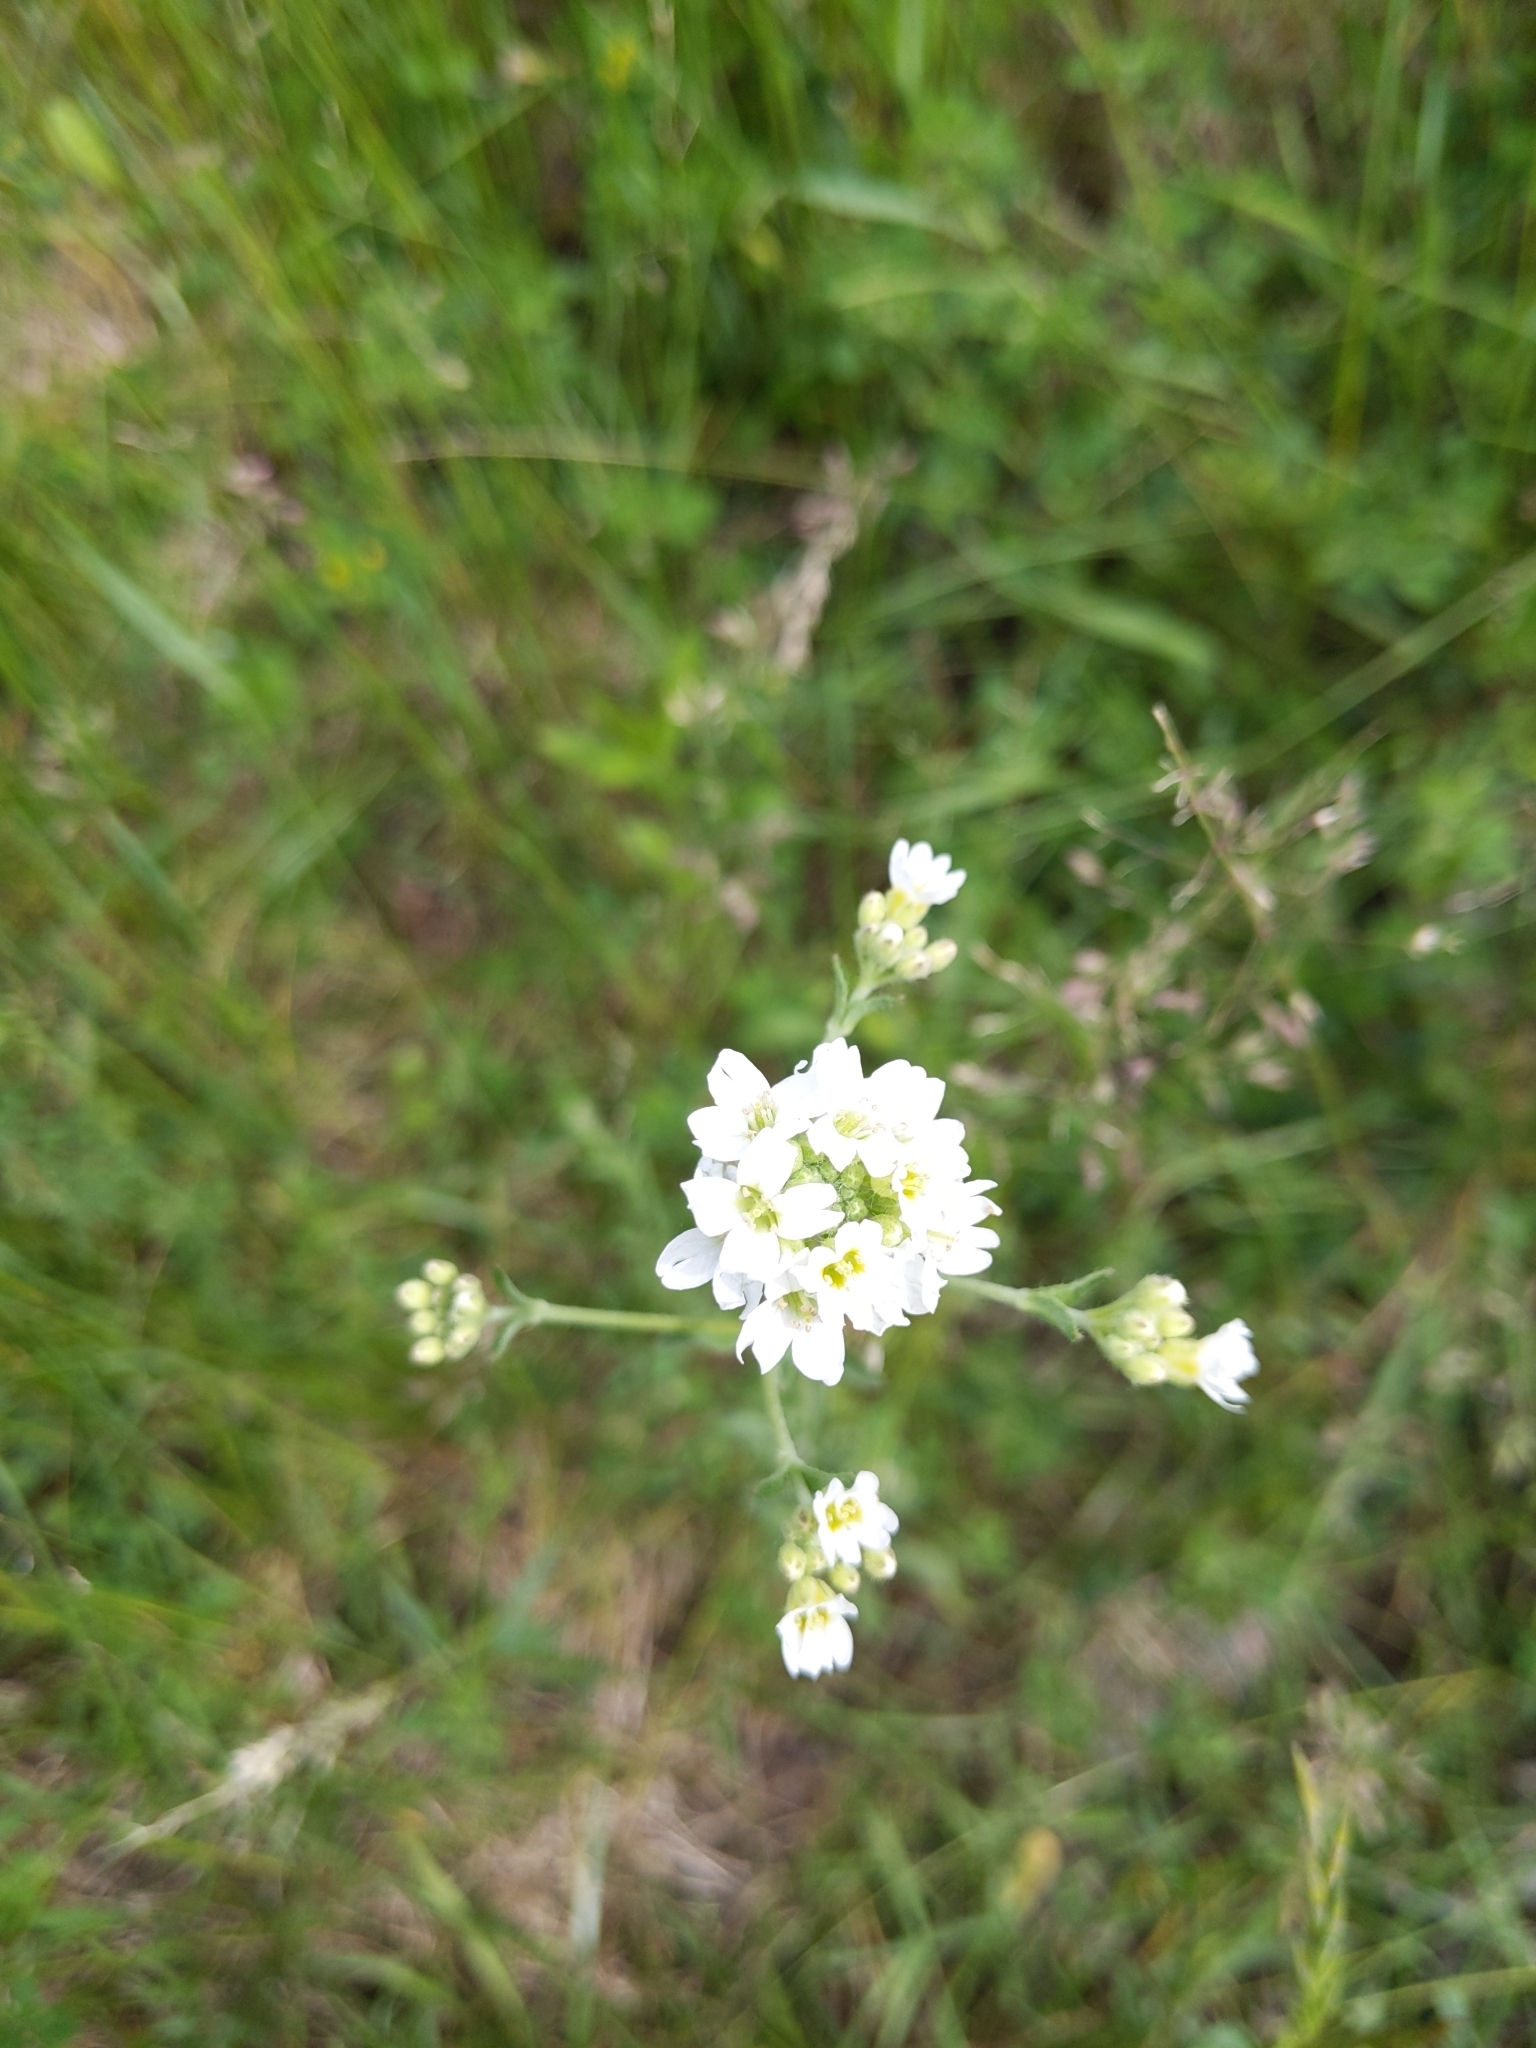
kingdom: Plantae
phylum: Tracheophyta
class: Magnoliopsida
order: Brassicales
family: Brassicaceae
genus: Berteroa
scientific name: Berteroa incana
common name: Hoary alison
